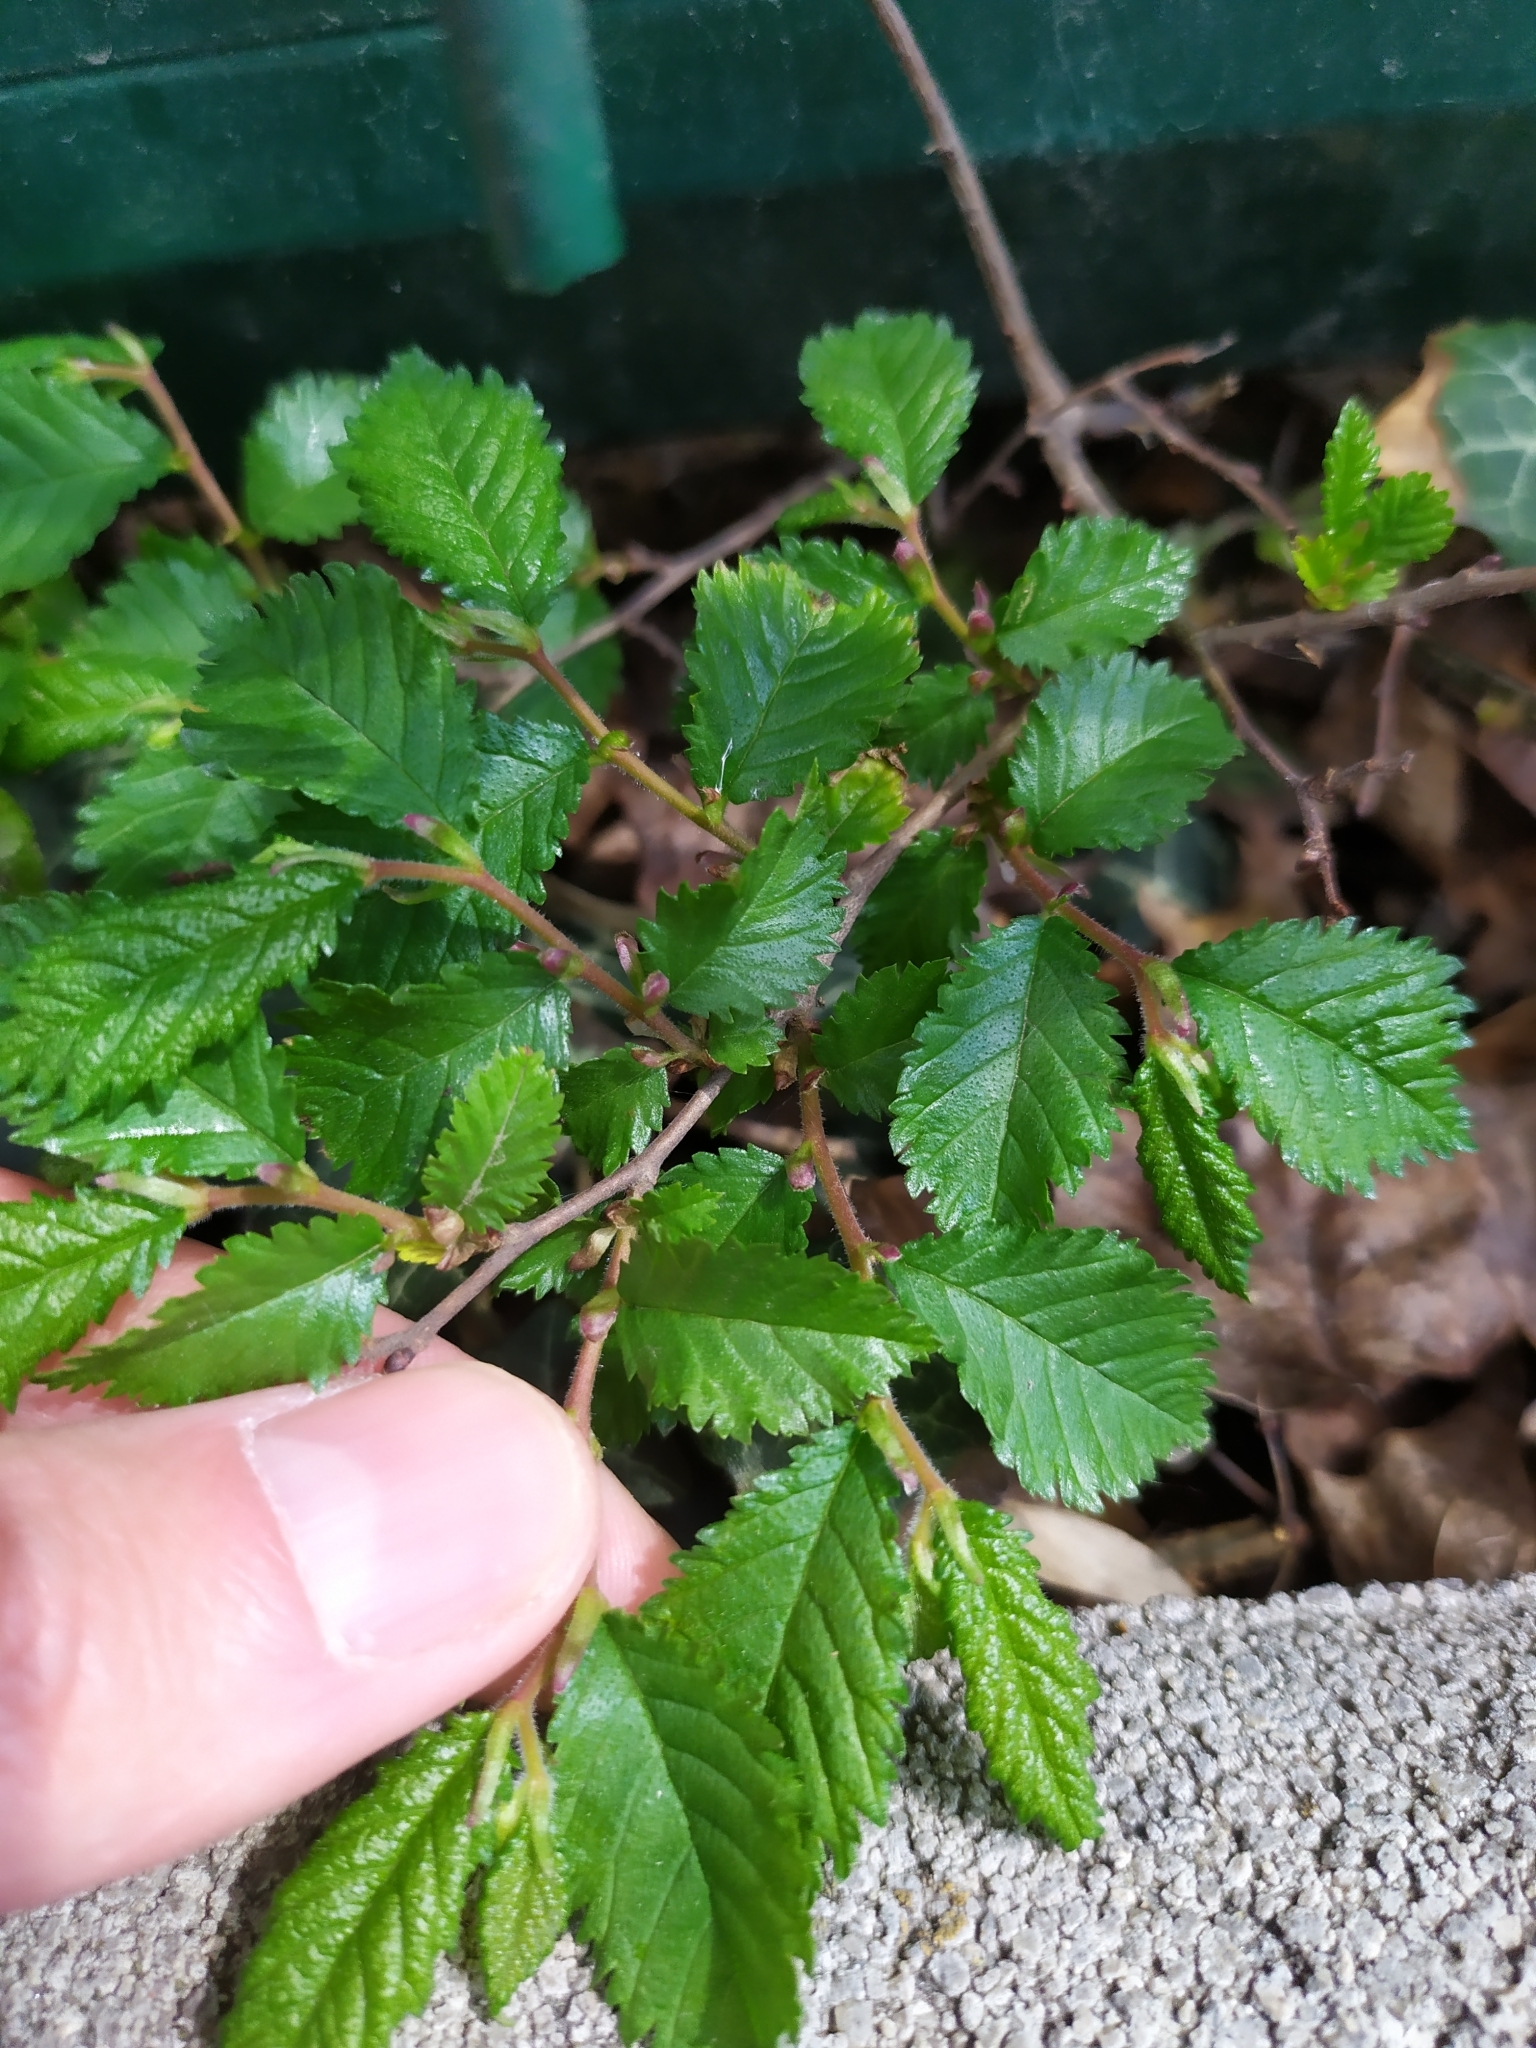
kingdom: Plantae
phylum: Tracheophyta
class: Magnoliopsida
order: Rosales
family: Ulmaceae
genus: Ulmus
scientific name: Ulmus minor
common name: Small-leaved elm
